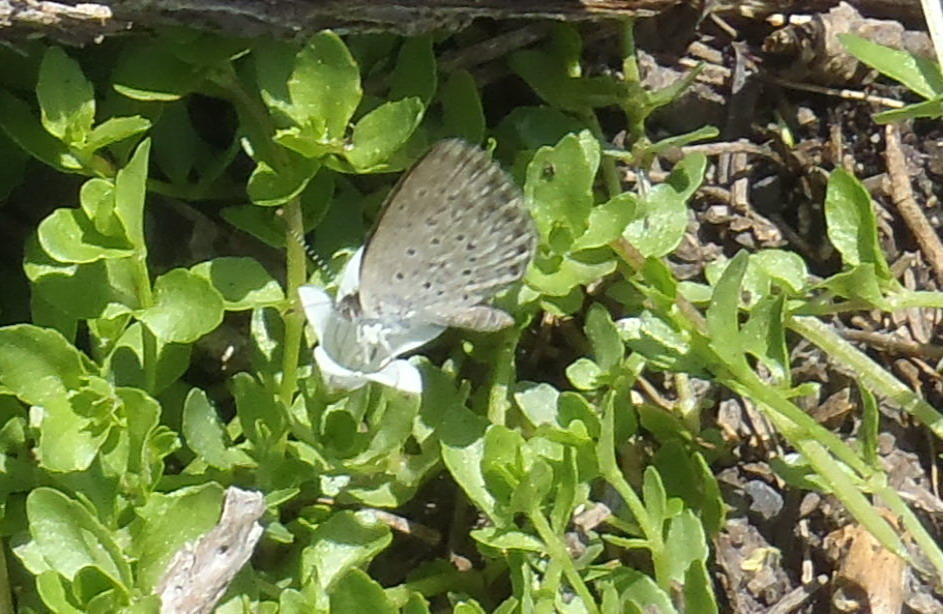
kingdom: Animalia
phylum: Arthropoda
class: Insecta
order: Lepidoptera
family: Lycaenidae
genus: Zizeeria
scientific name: Zizeeria knysna
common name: African grass blue
